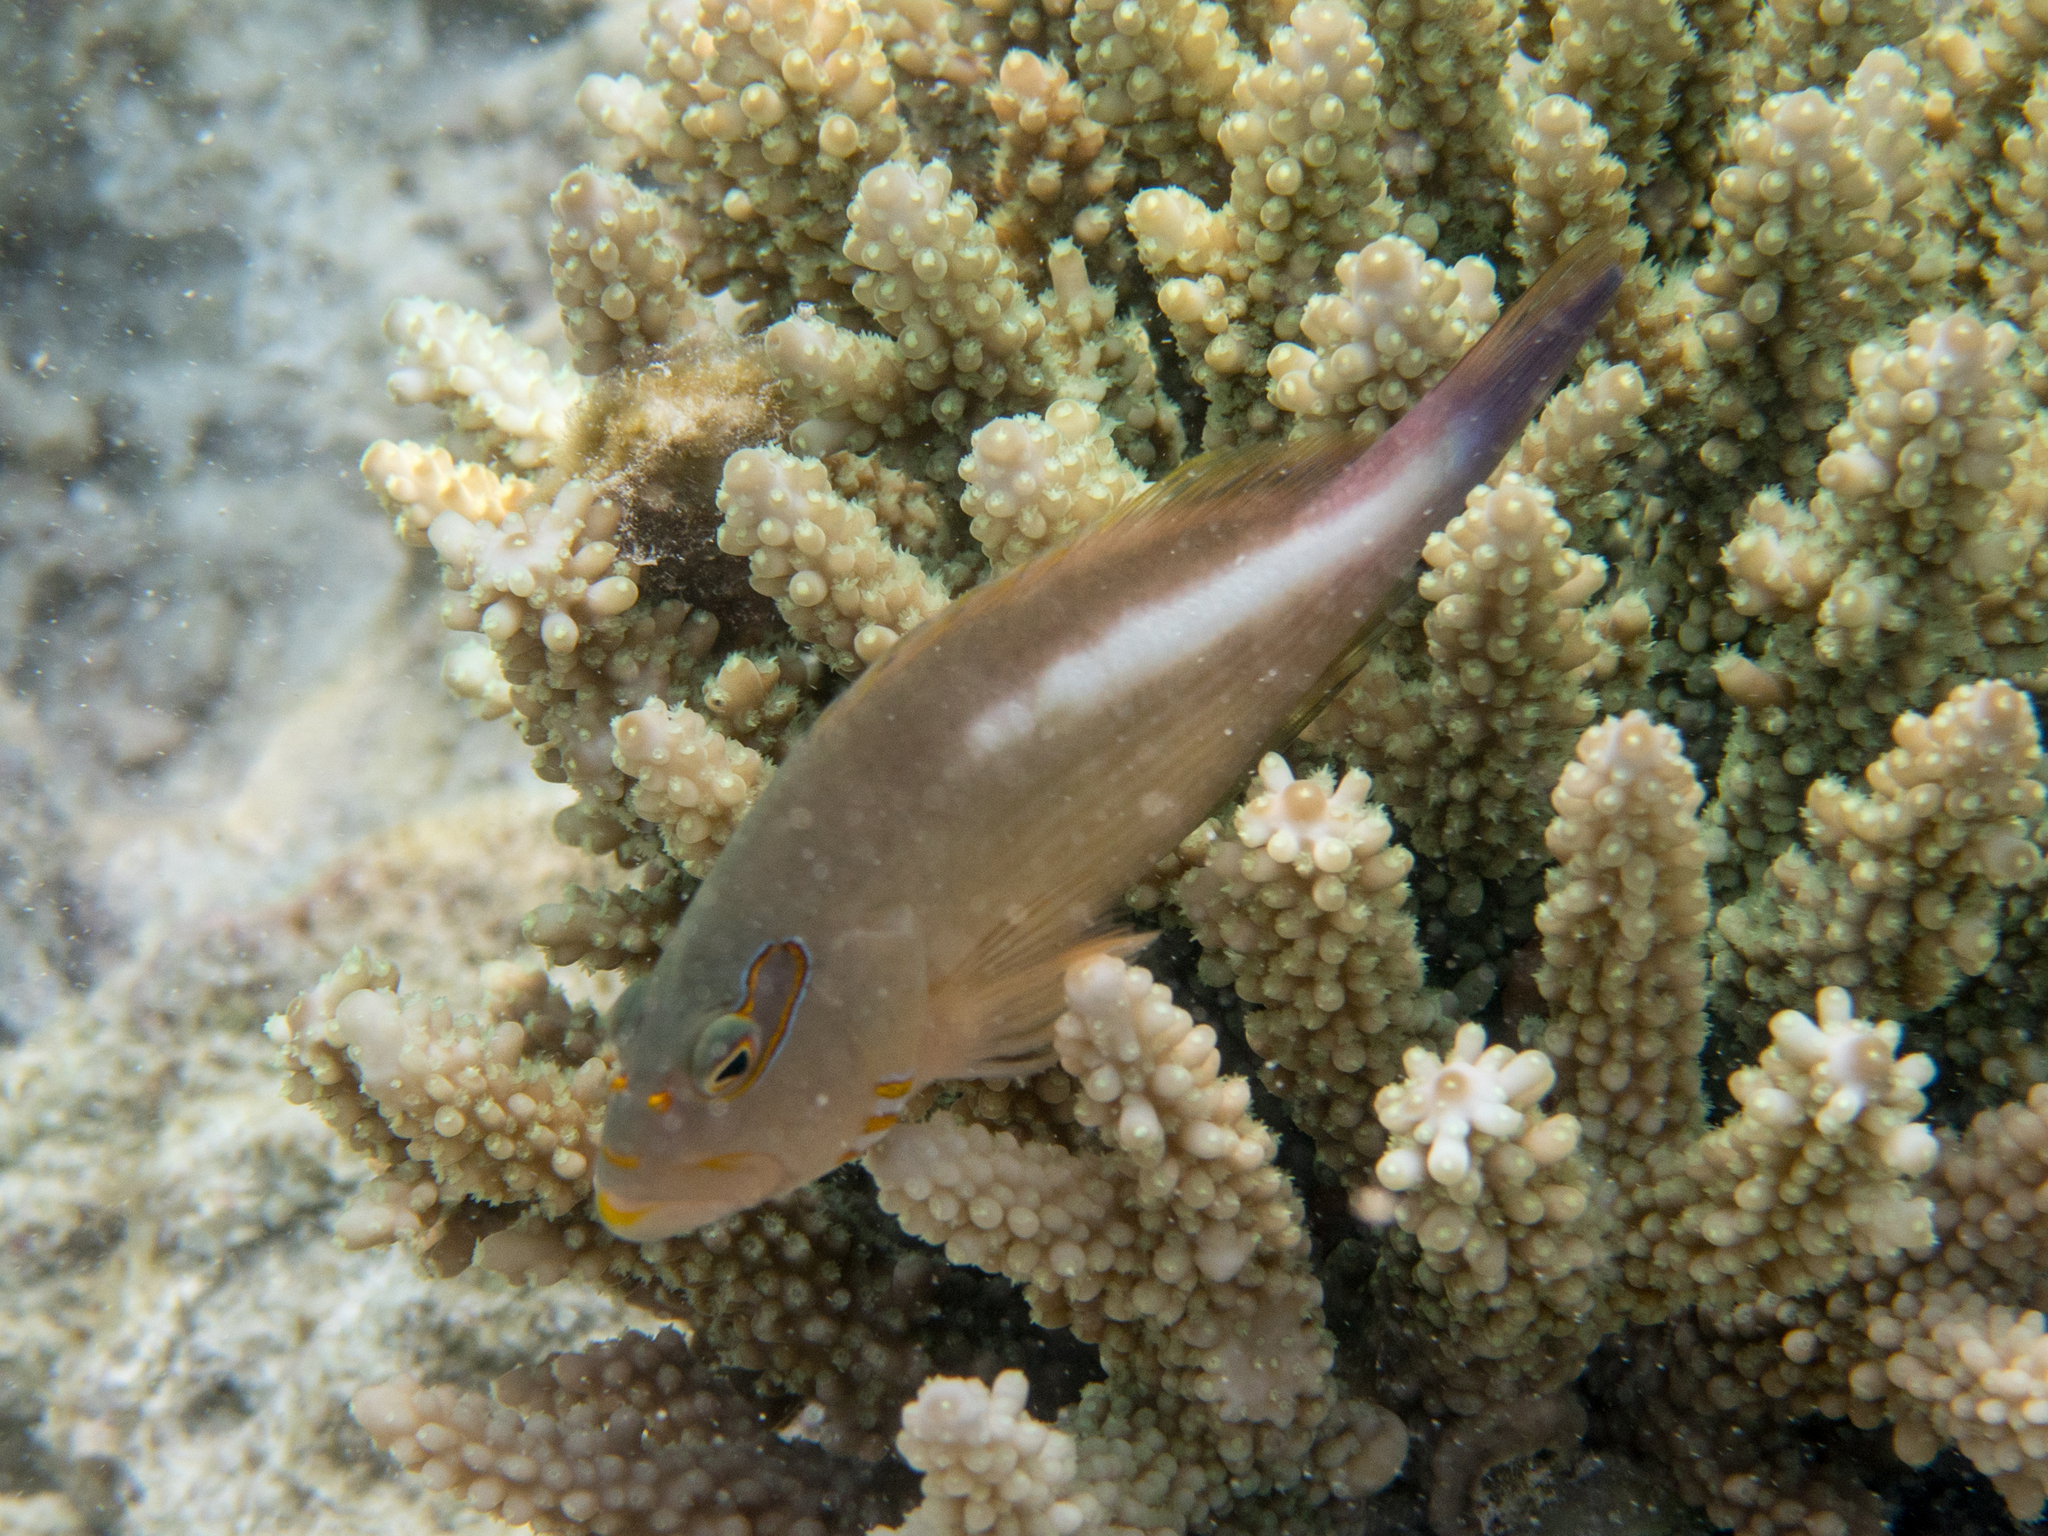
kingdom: Animalia
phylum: Chordata
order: Perciformes
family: Cirrhitidae
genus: Paracirrhites
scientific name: Paracirrhites arcatus
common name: Arc-eye hawkfish
